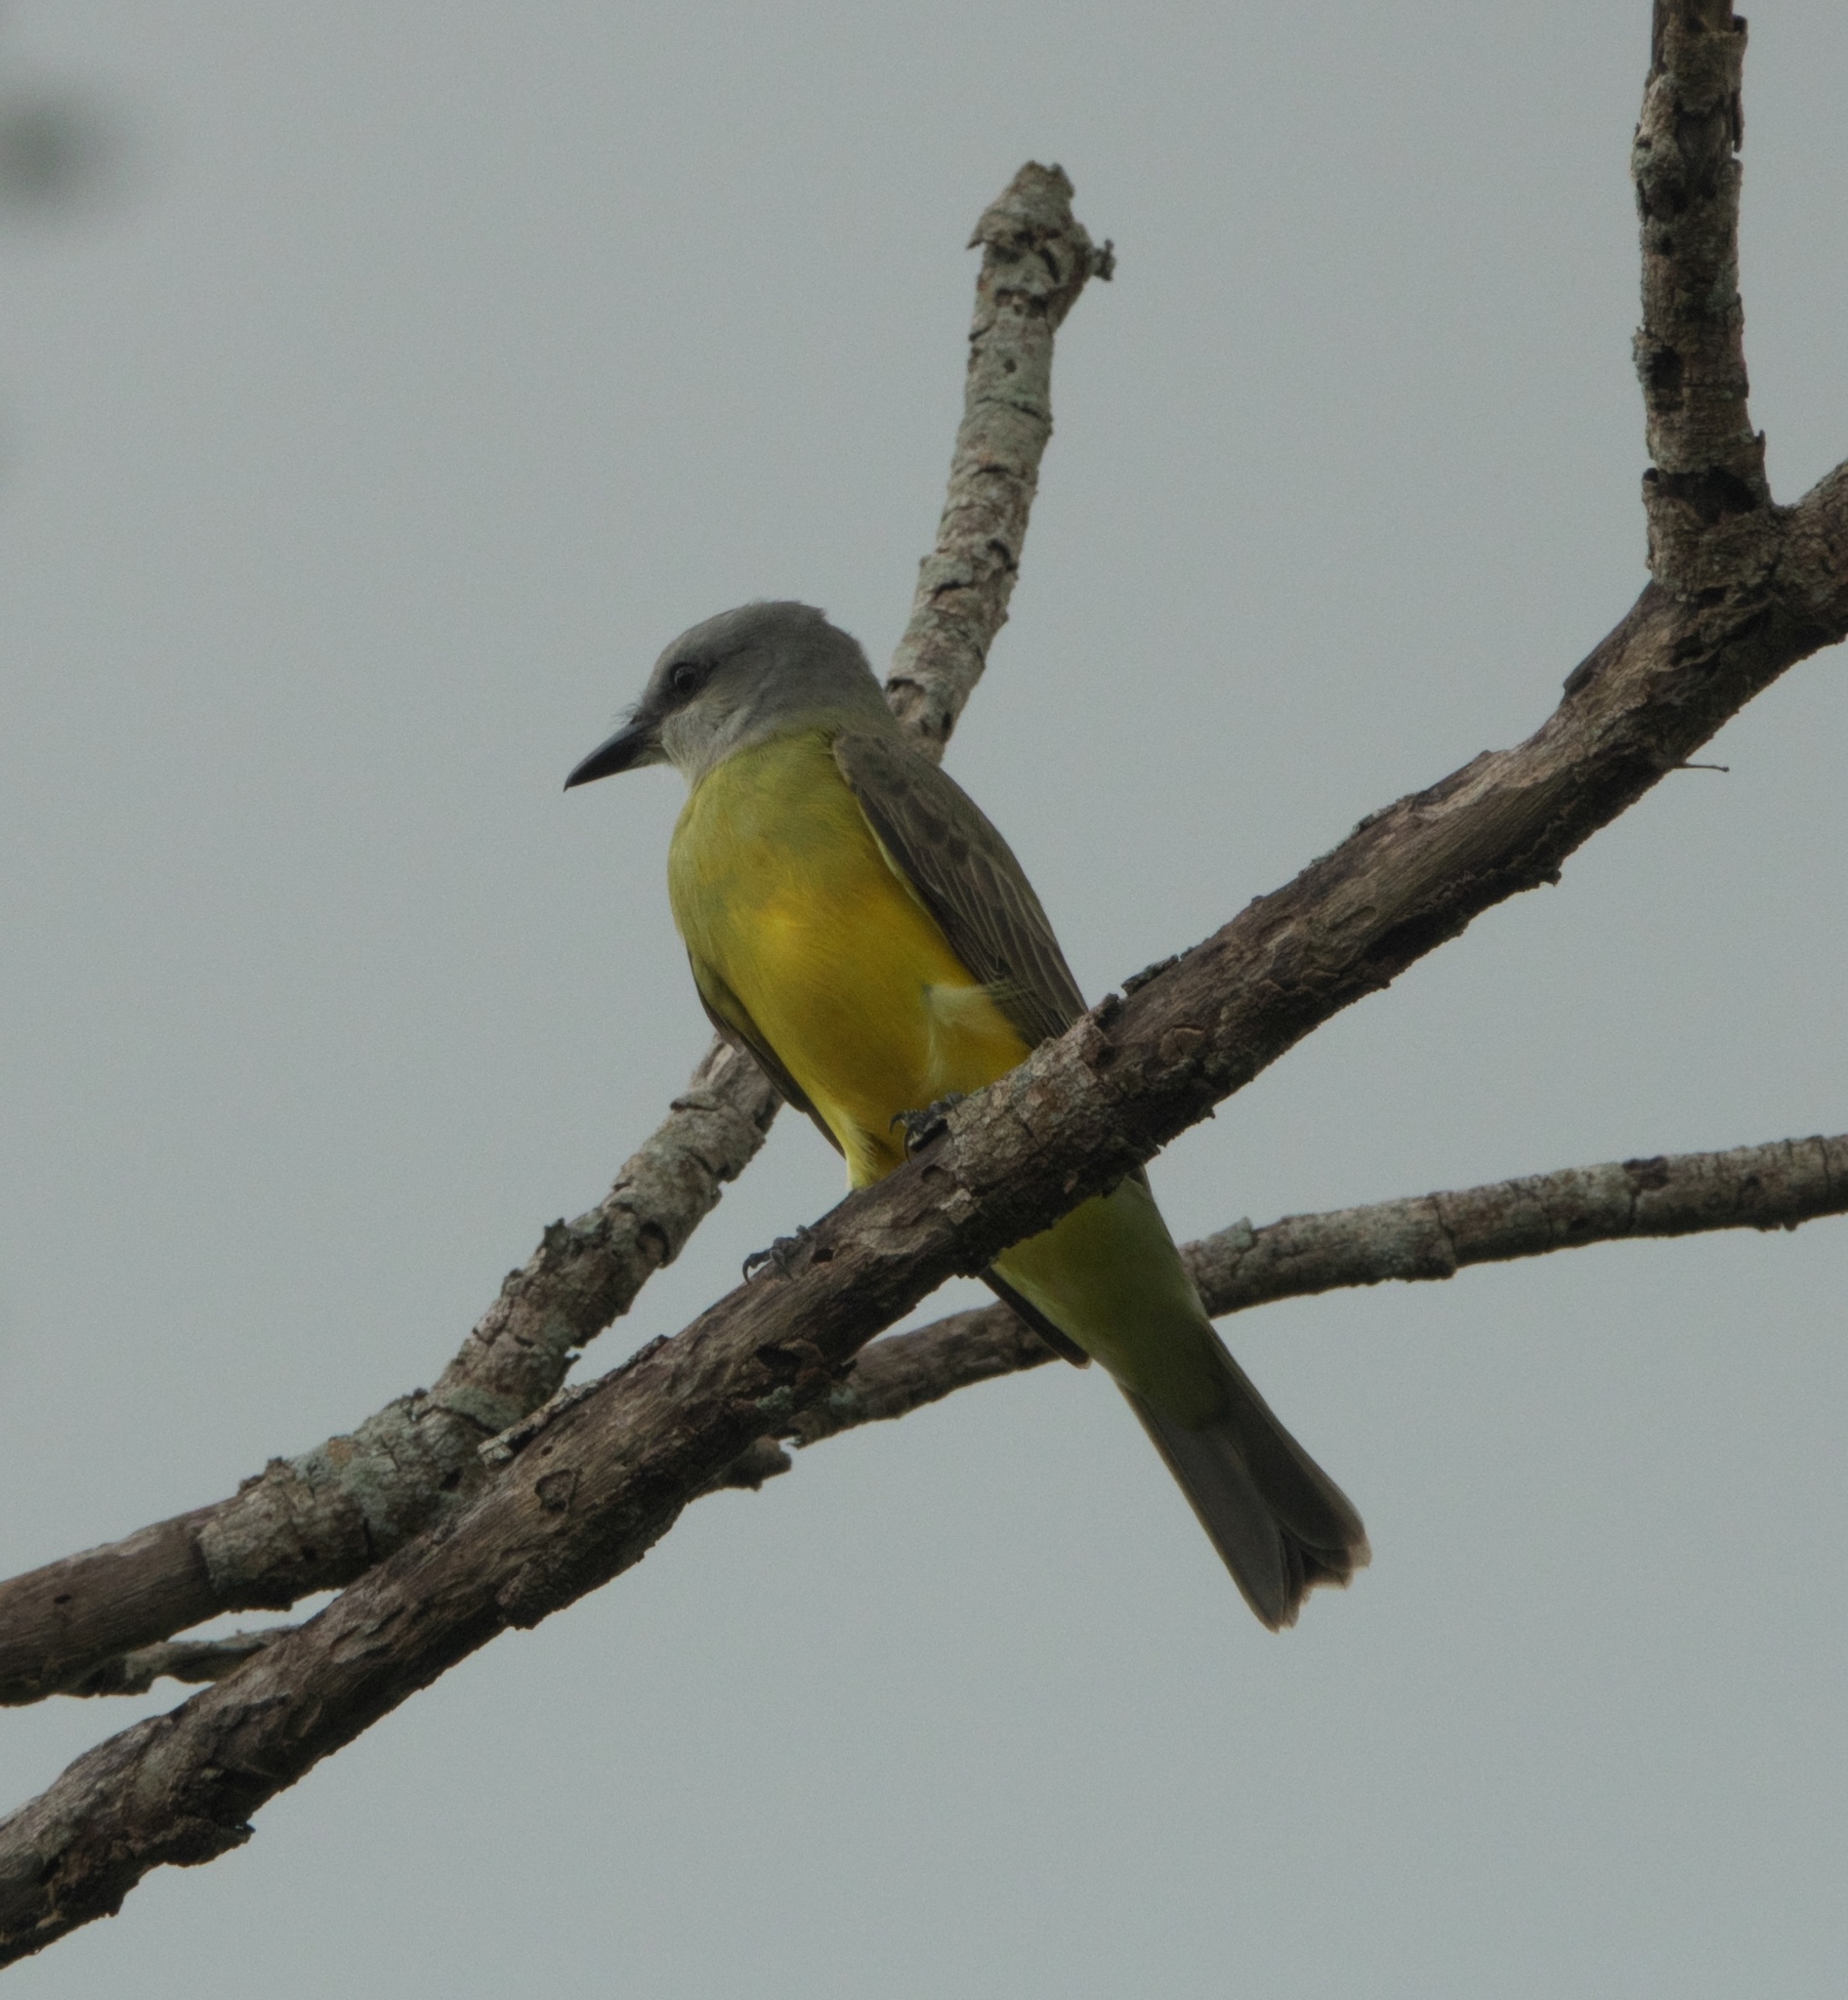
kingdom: Animalia
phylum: Chordata
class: Aves
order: Passeriformes
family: Tyrannidae
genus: Tyrannus
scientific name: Tyrannus
